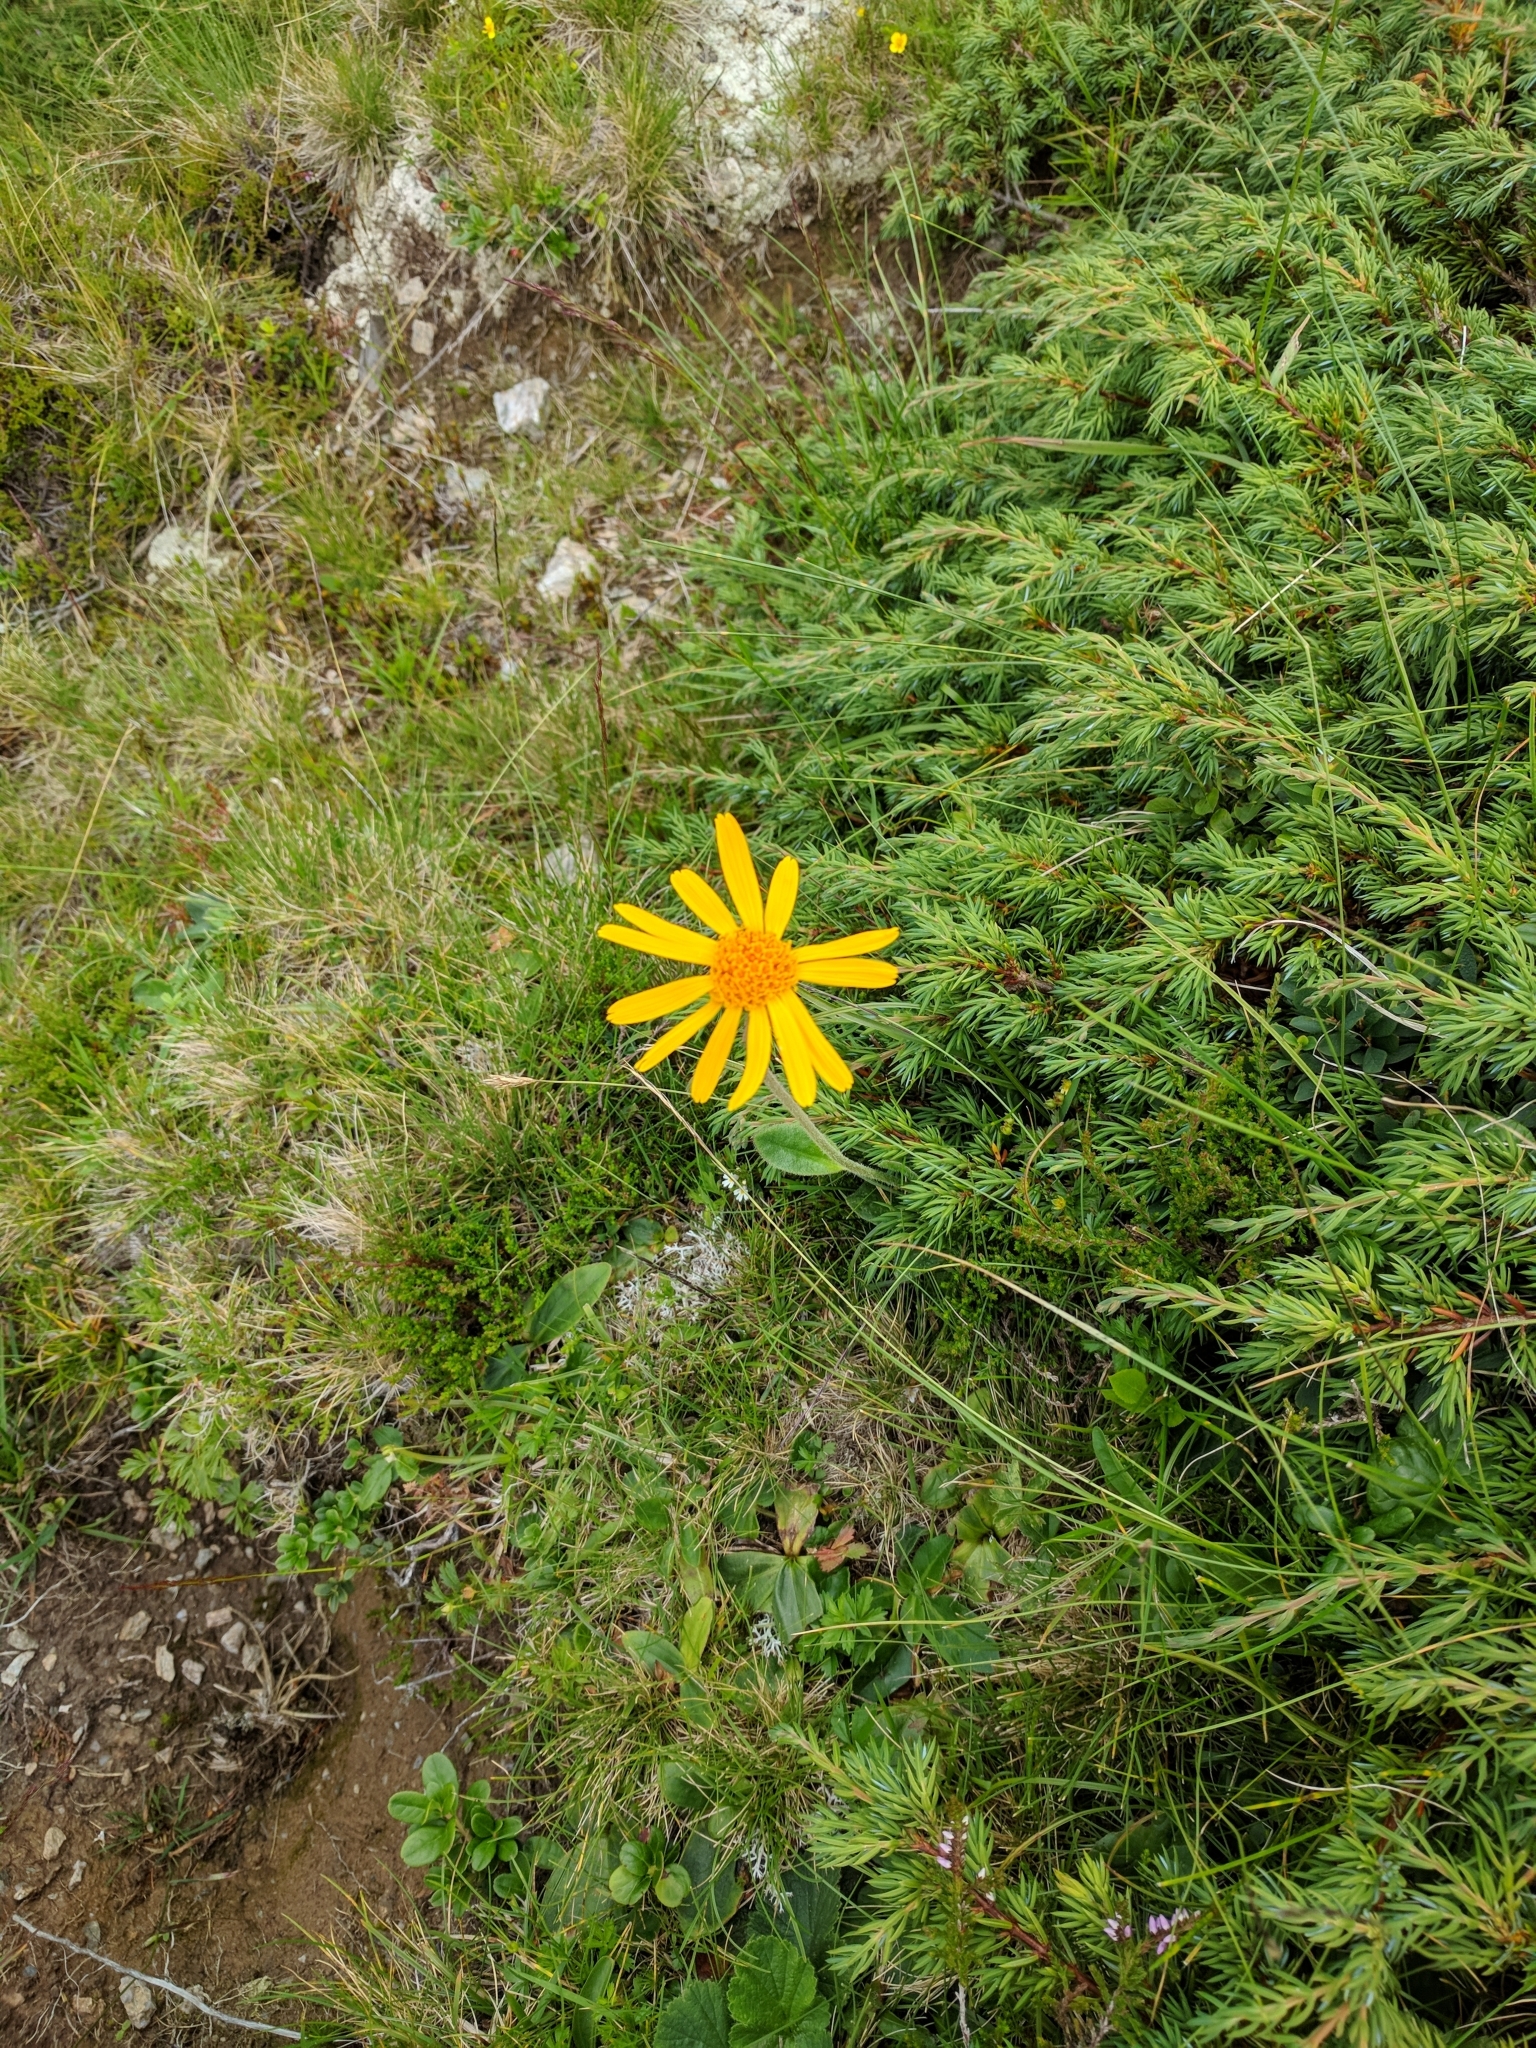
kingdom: Plantae
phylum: Tracheophyta
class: Magnoliopsida
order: Asterales
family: Asteraceae
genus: Arnica
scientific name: Arnica montana
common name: Leopard's bane
